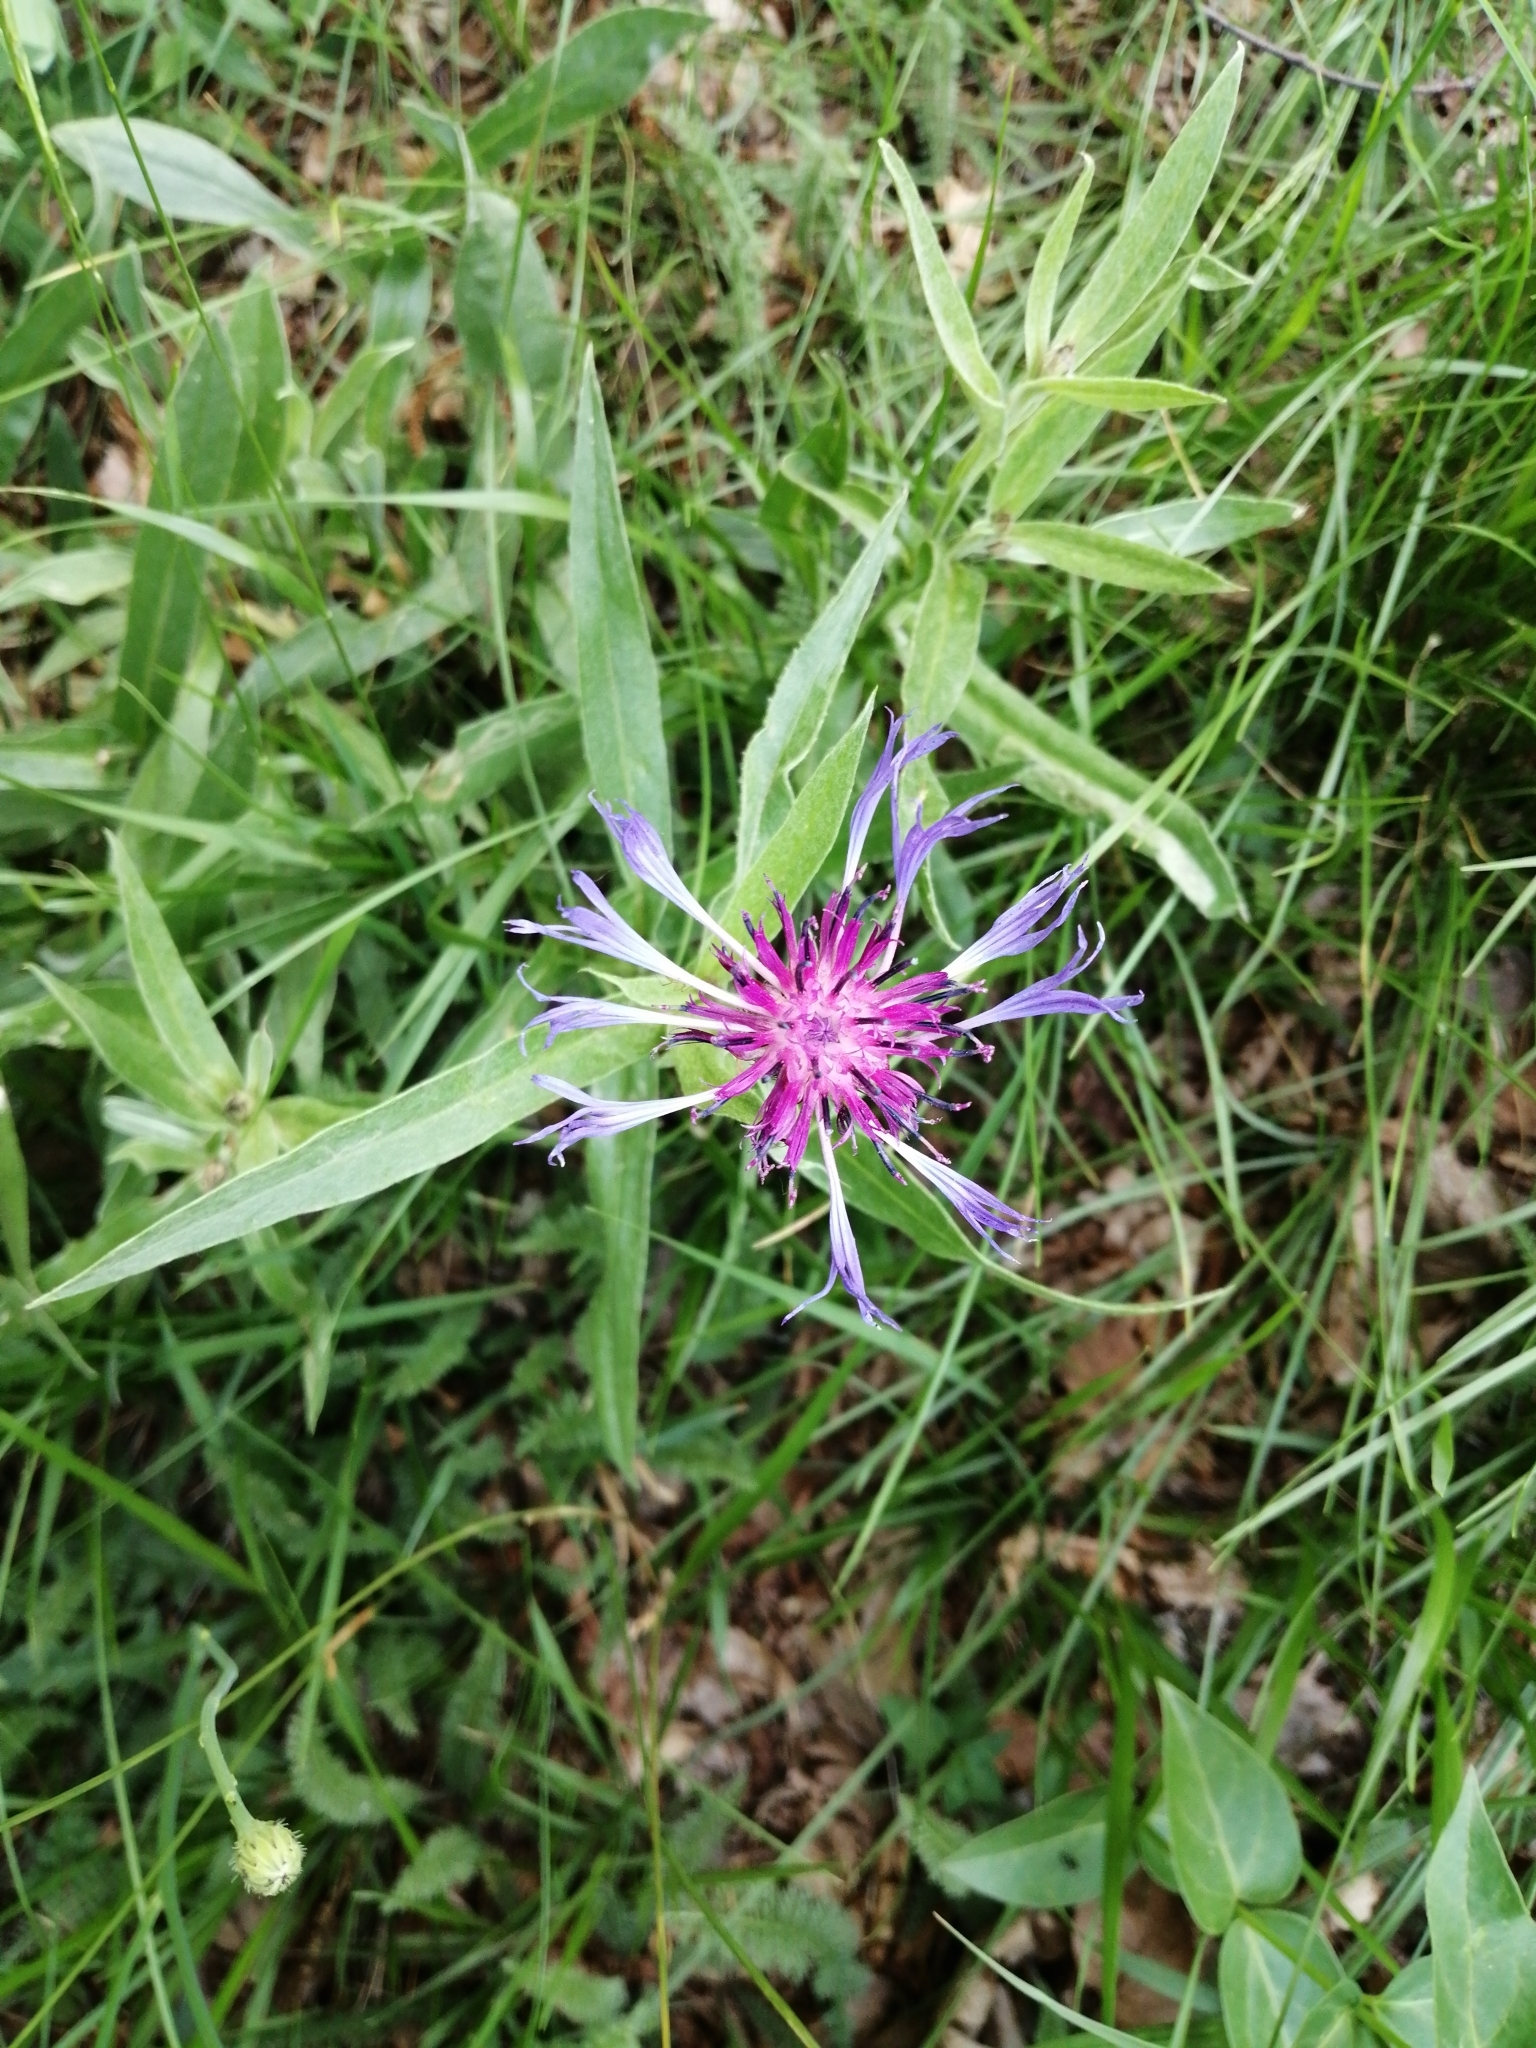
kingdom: Plantae
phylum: Tracheophyta
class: Magnoliopsida
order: Asterales
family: Asteraceae
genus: Centaurea
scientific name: Centaurea triumfettii
